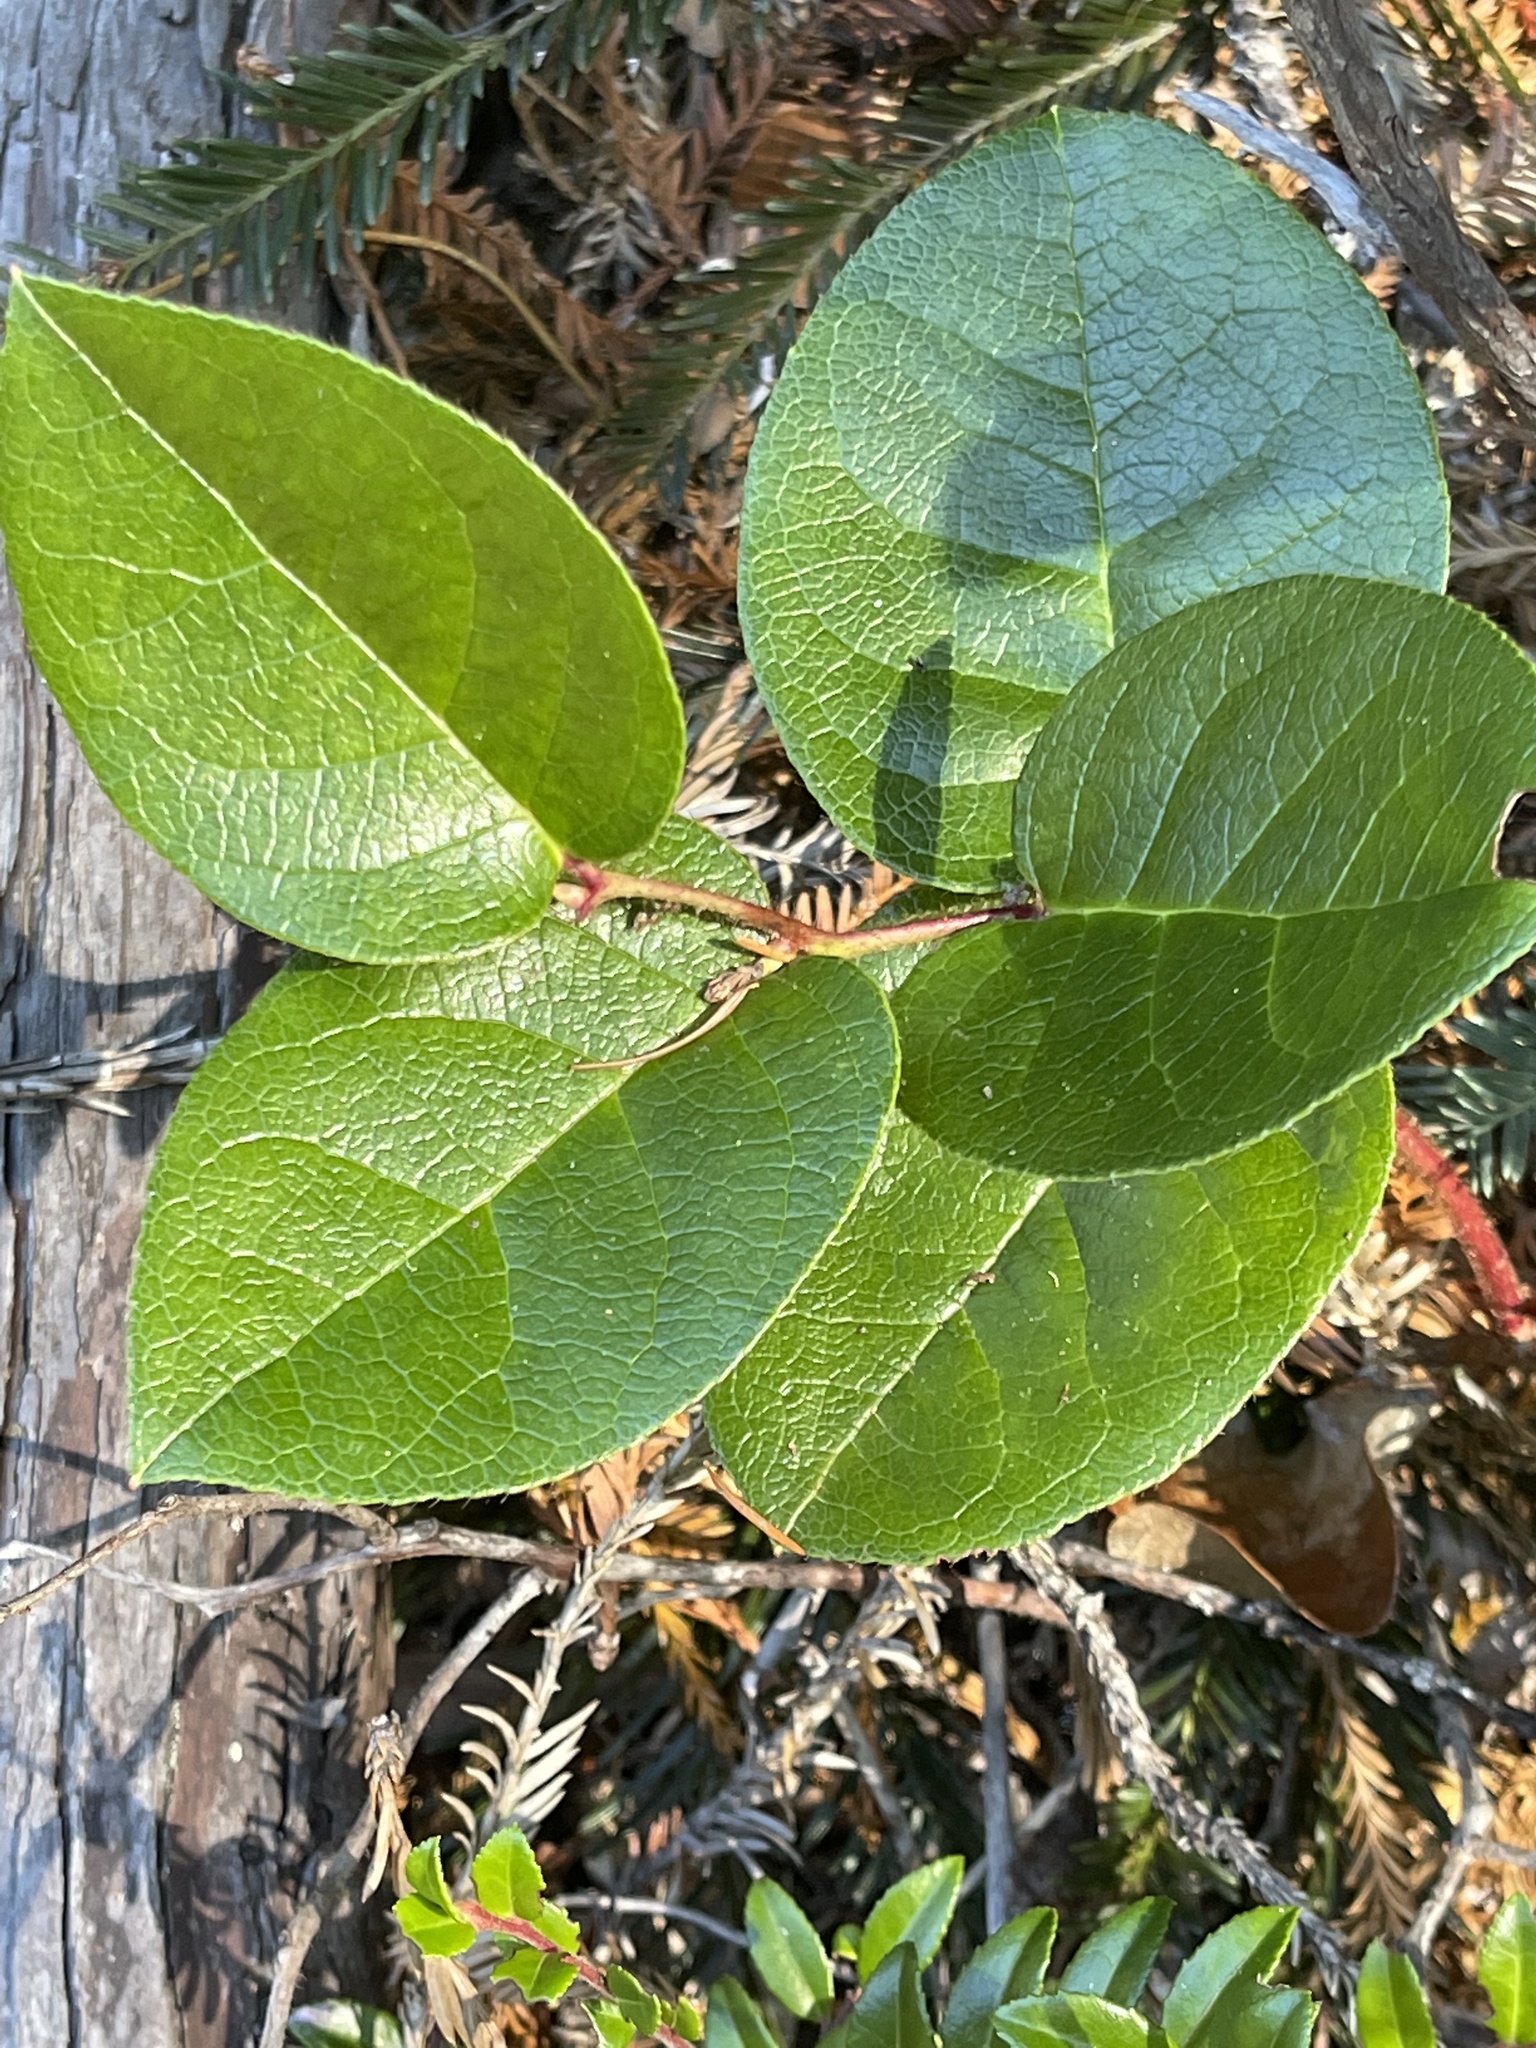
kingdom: Plantae
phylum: Tracheophyta
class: Magnoliopsida
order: Ericales
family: Ericaceae
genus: Gaultheria
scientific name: Gaultheria shallon
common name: Shallon
